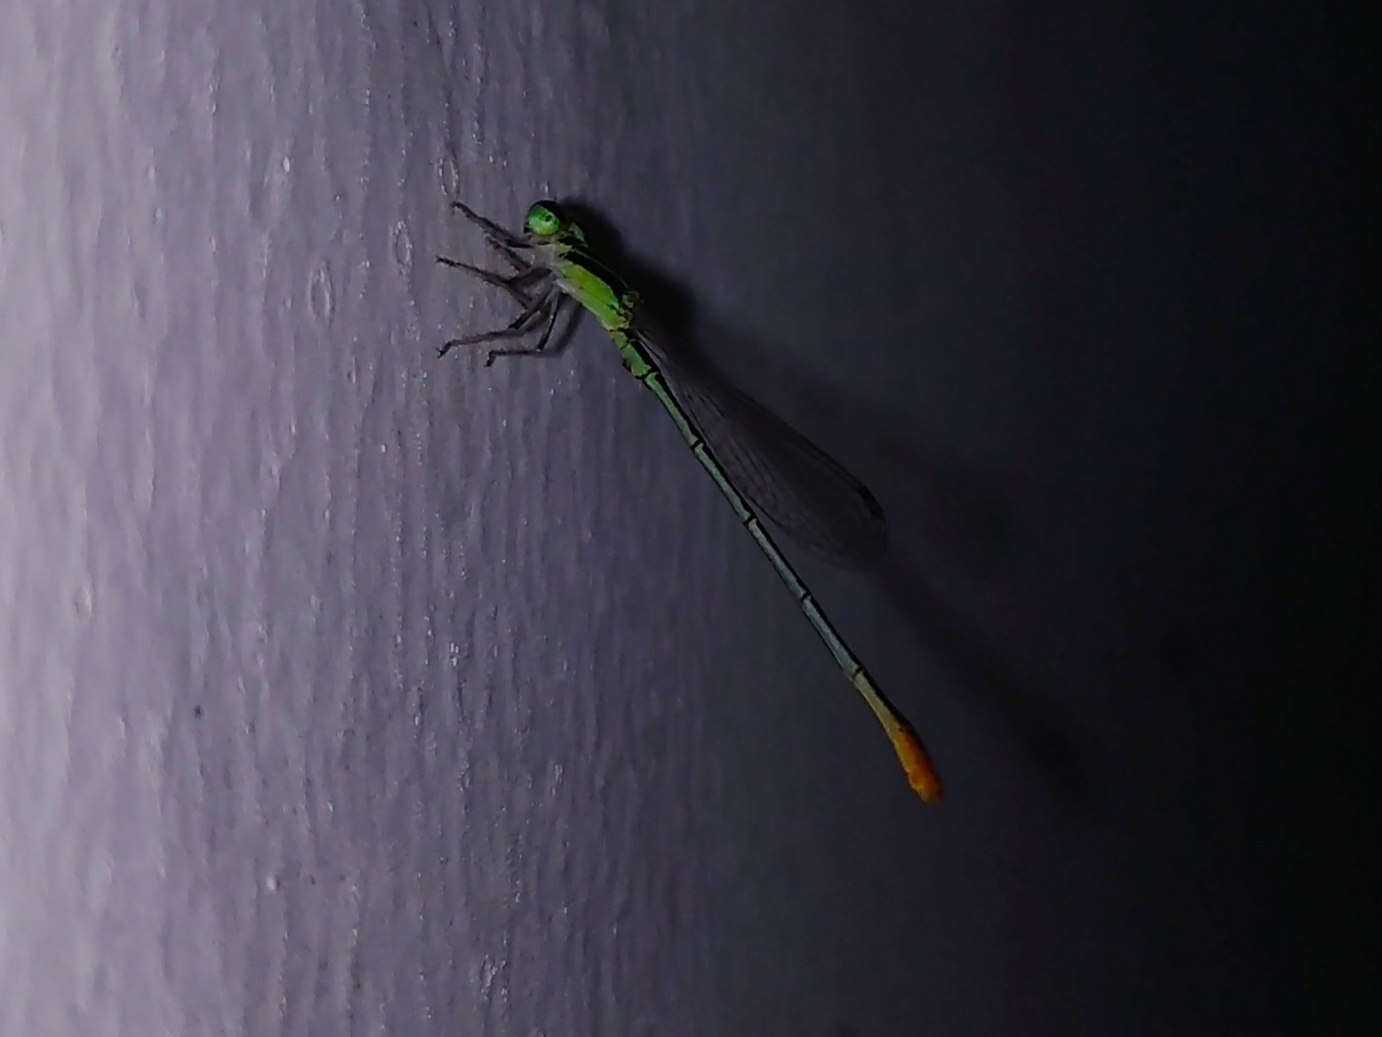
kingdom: Animalia
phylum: Arthropoda
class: Insecta
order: Odonata
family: Coenagrionidae
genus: Agriocnemis
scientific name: Agriocnemis pygmaea
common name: Pygmy wisp
